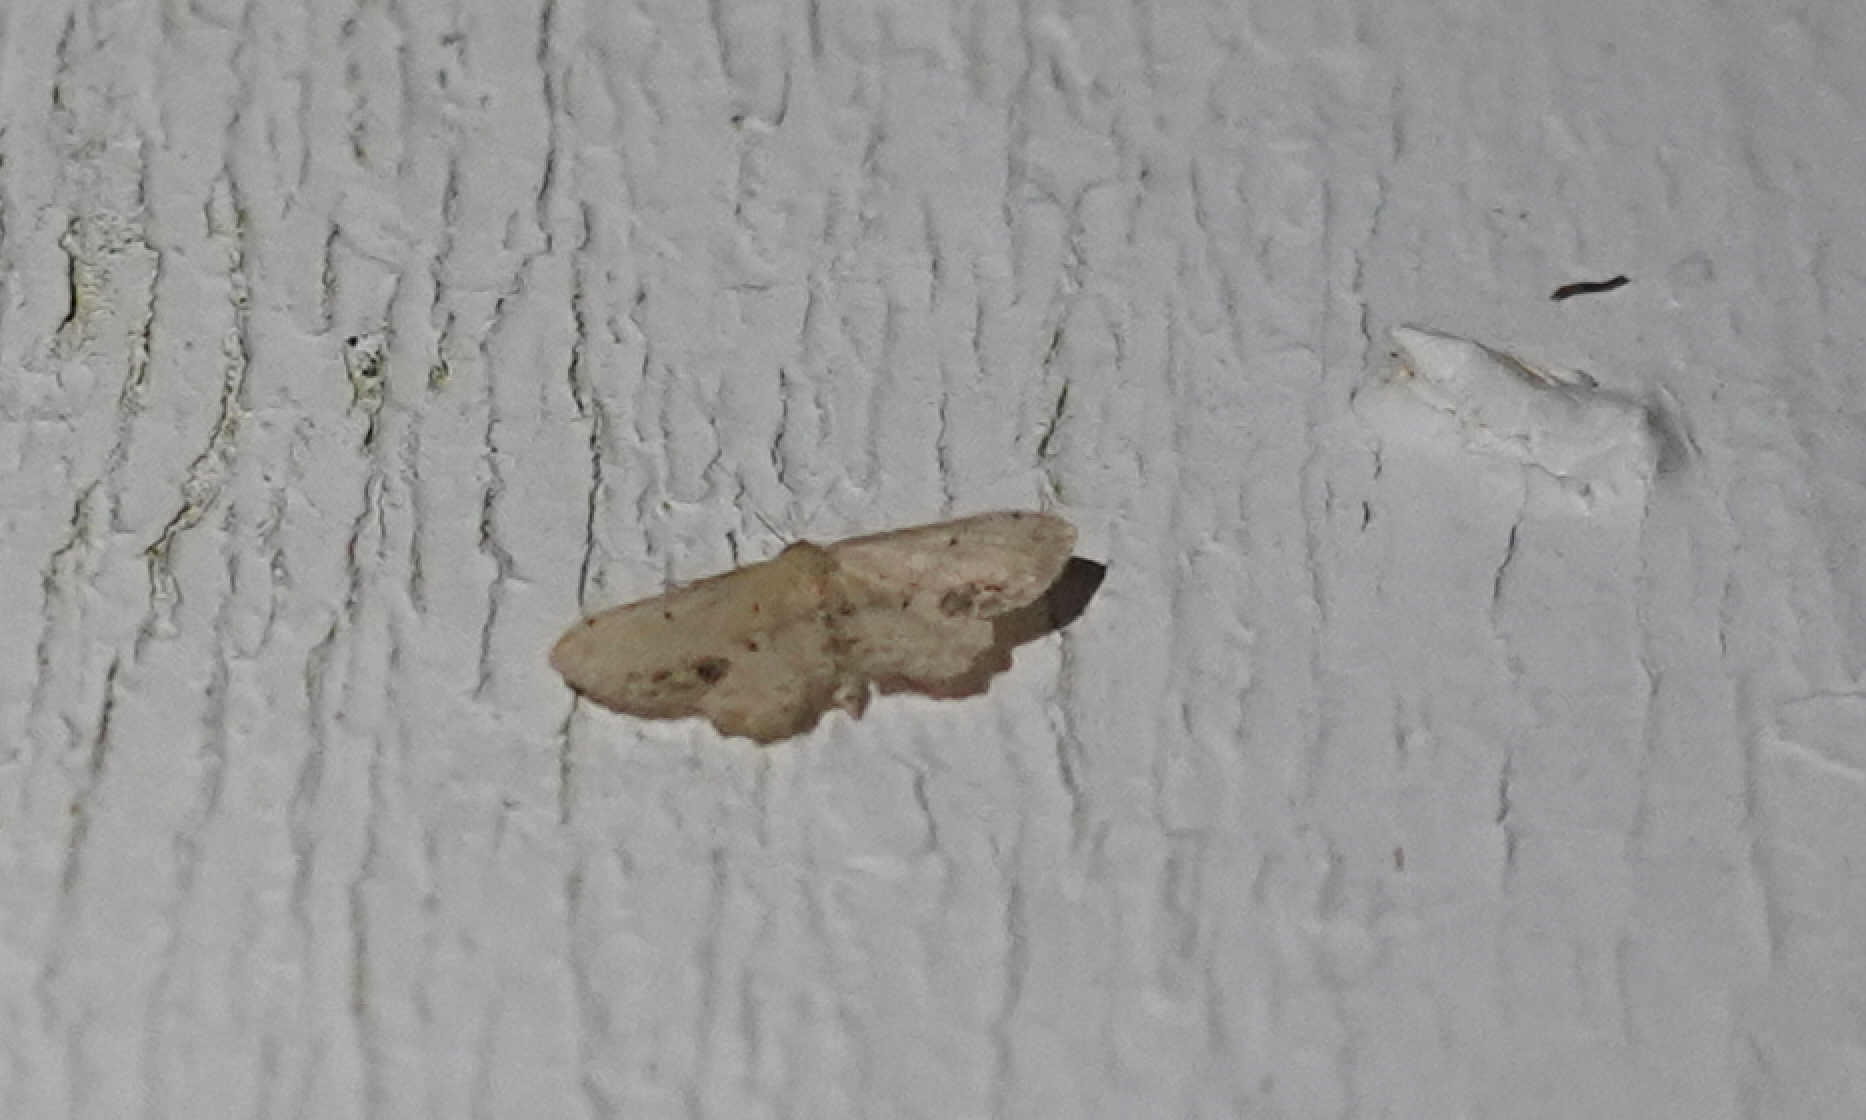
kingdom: Animalia
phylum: Arthropoda
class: Insecta
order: Lepidoptera
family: Geometridae
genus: Idaea
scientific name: Idaea dimidiata
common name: Single-dotted wave
